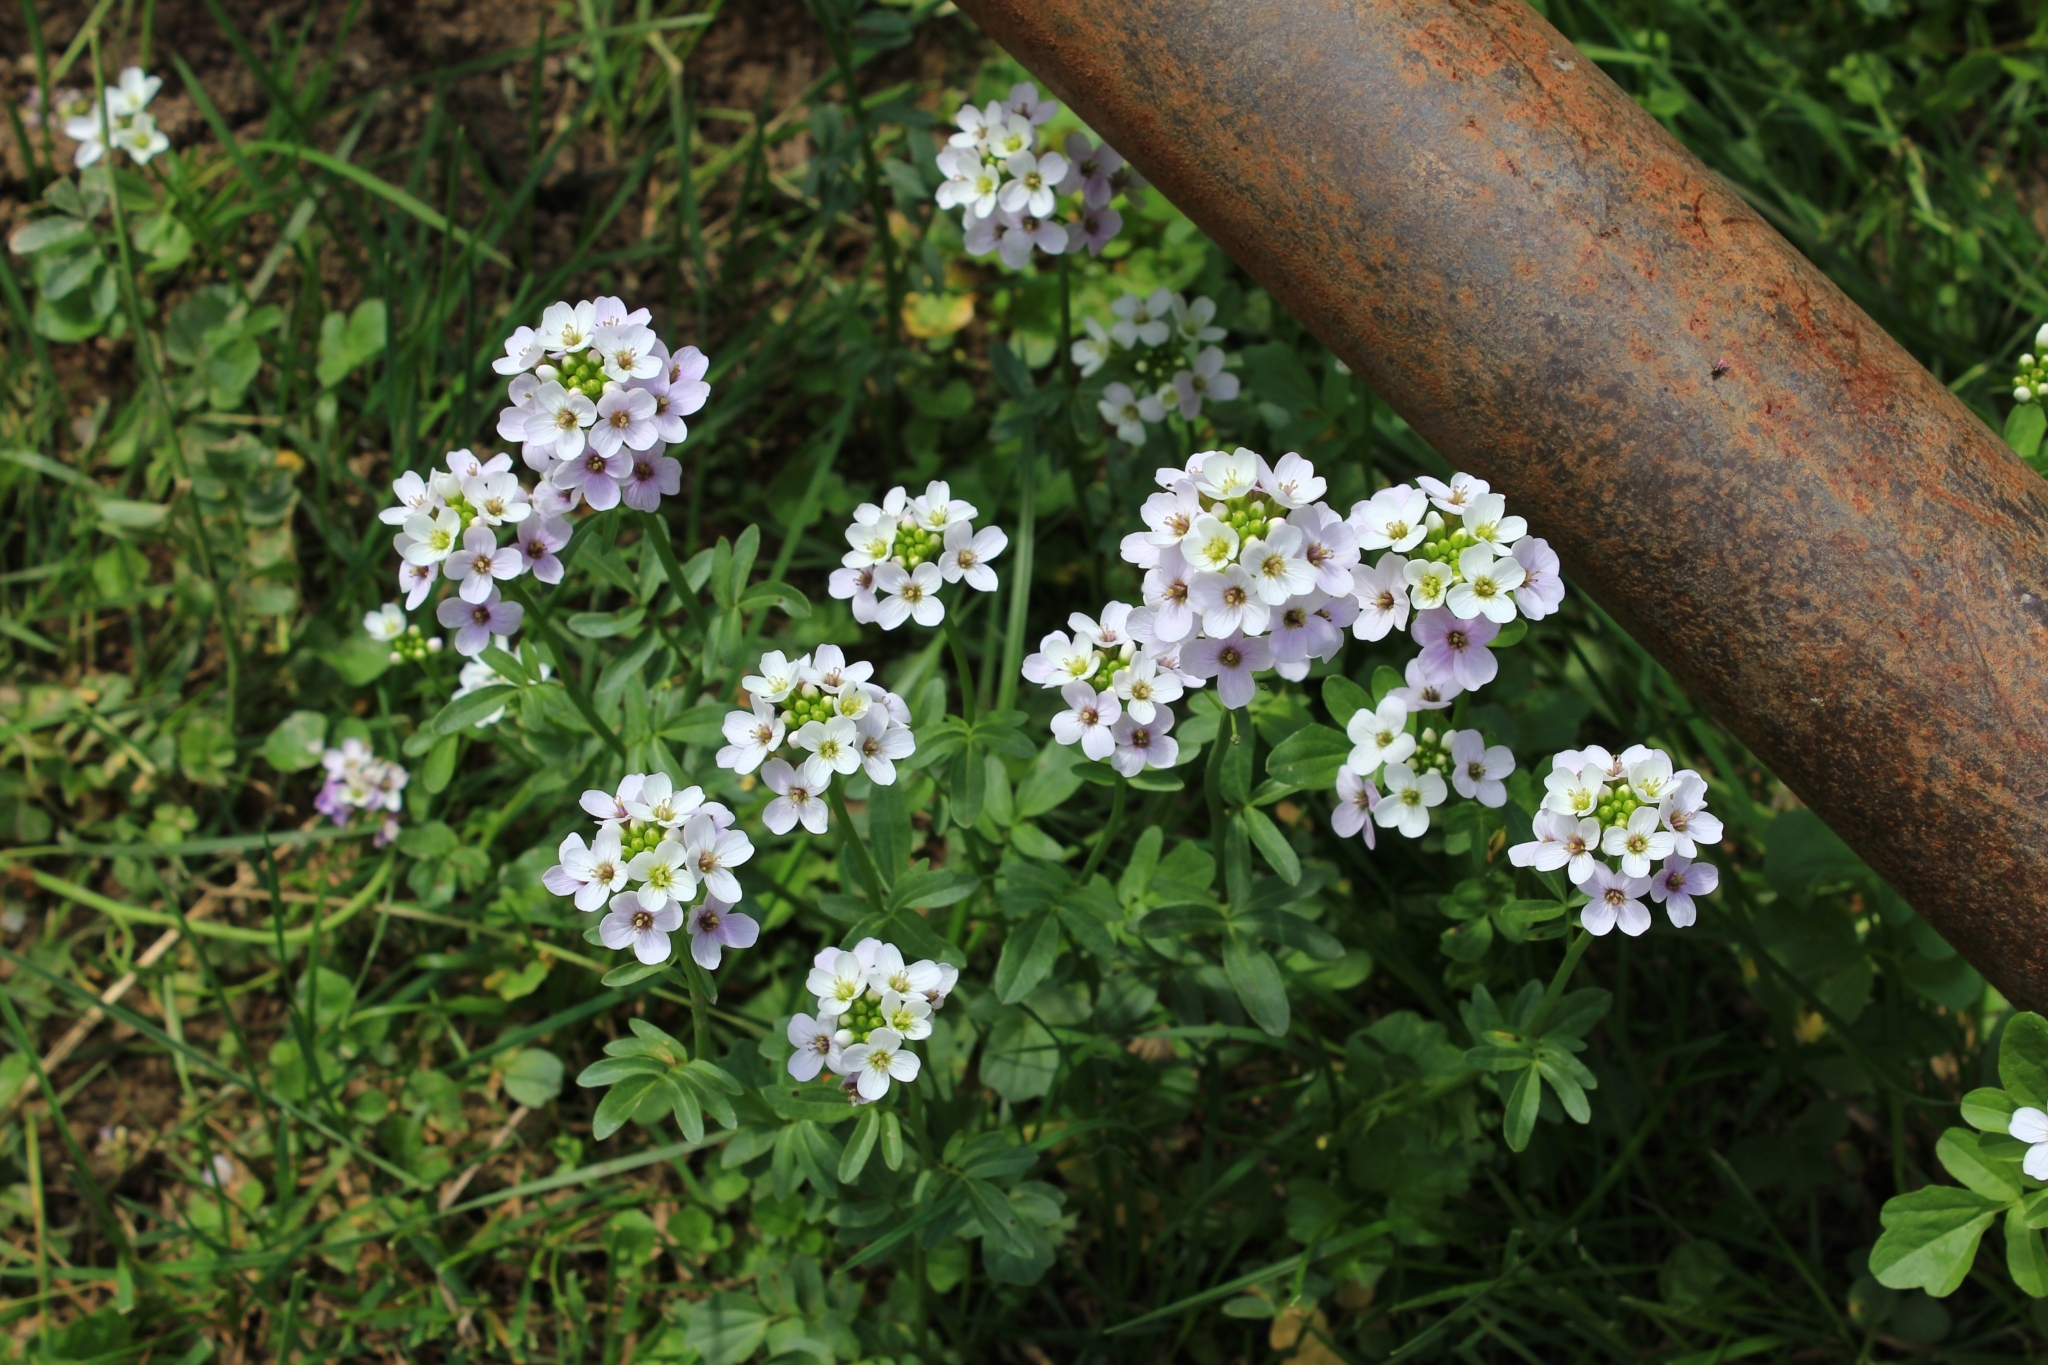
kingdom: Plantae
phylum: Tracheophyta
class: Magnoliopsida
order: Brassicales
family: Brassicaceae
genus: Cardamine
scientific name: Cardamine uliginosa
